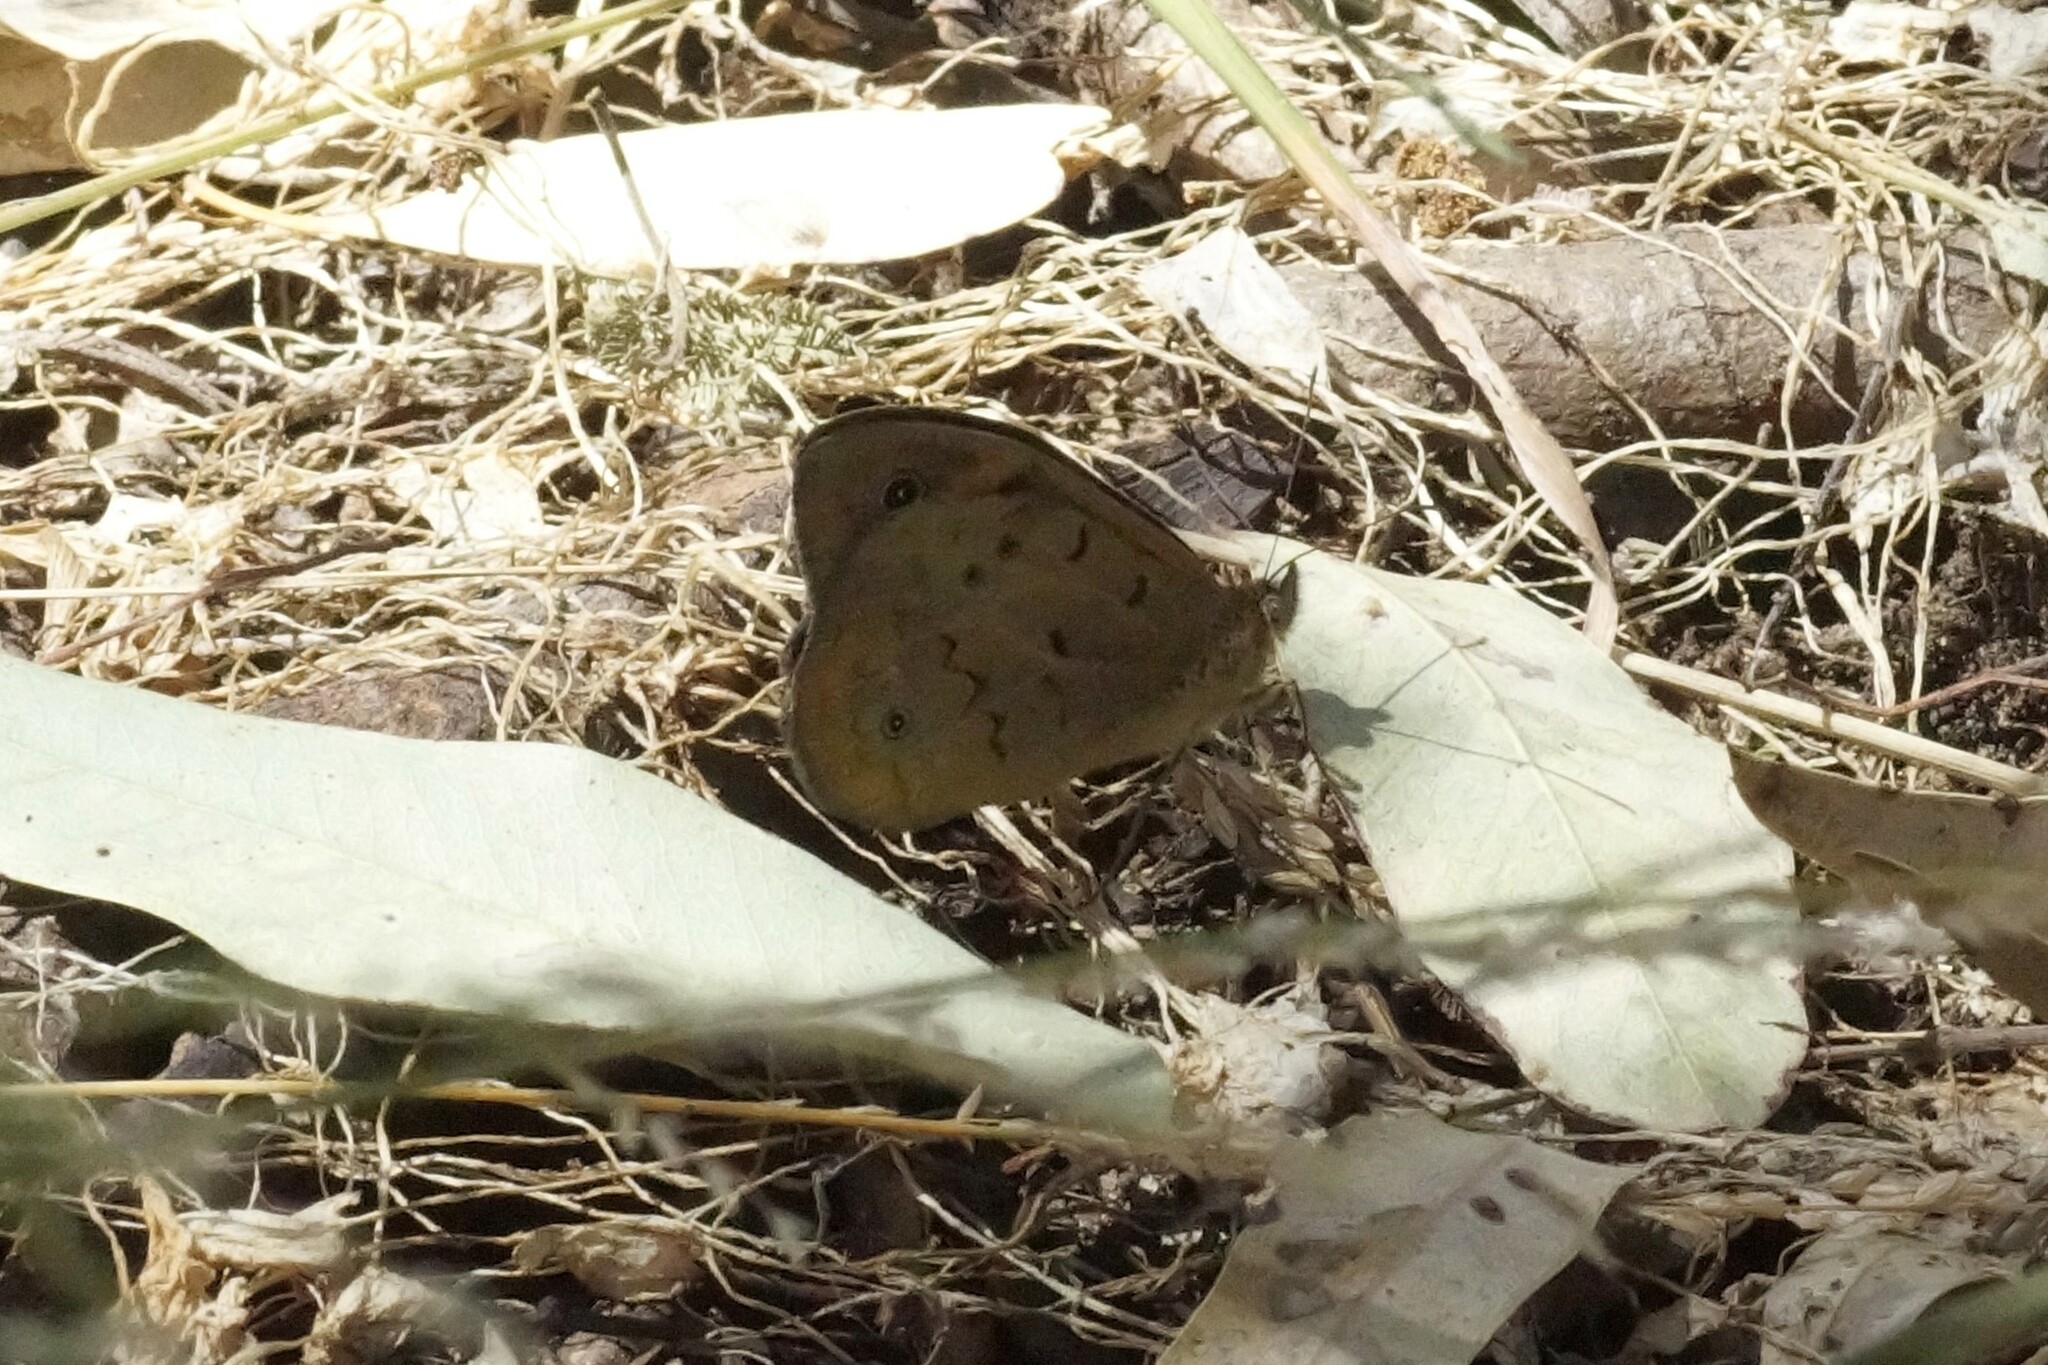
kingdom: Animalia
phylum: Arthropoda
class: Insecta
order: Lepidoptera
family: Nymphalidae
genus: Heteronympha
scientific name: Heteronympha merope
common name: Common brown
